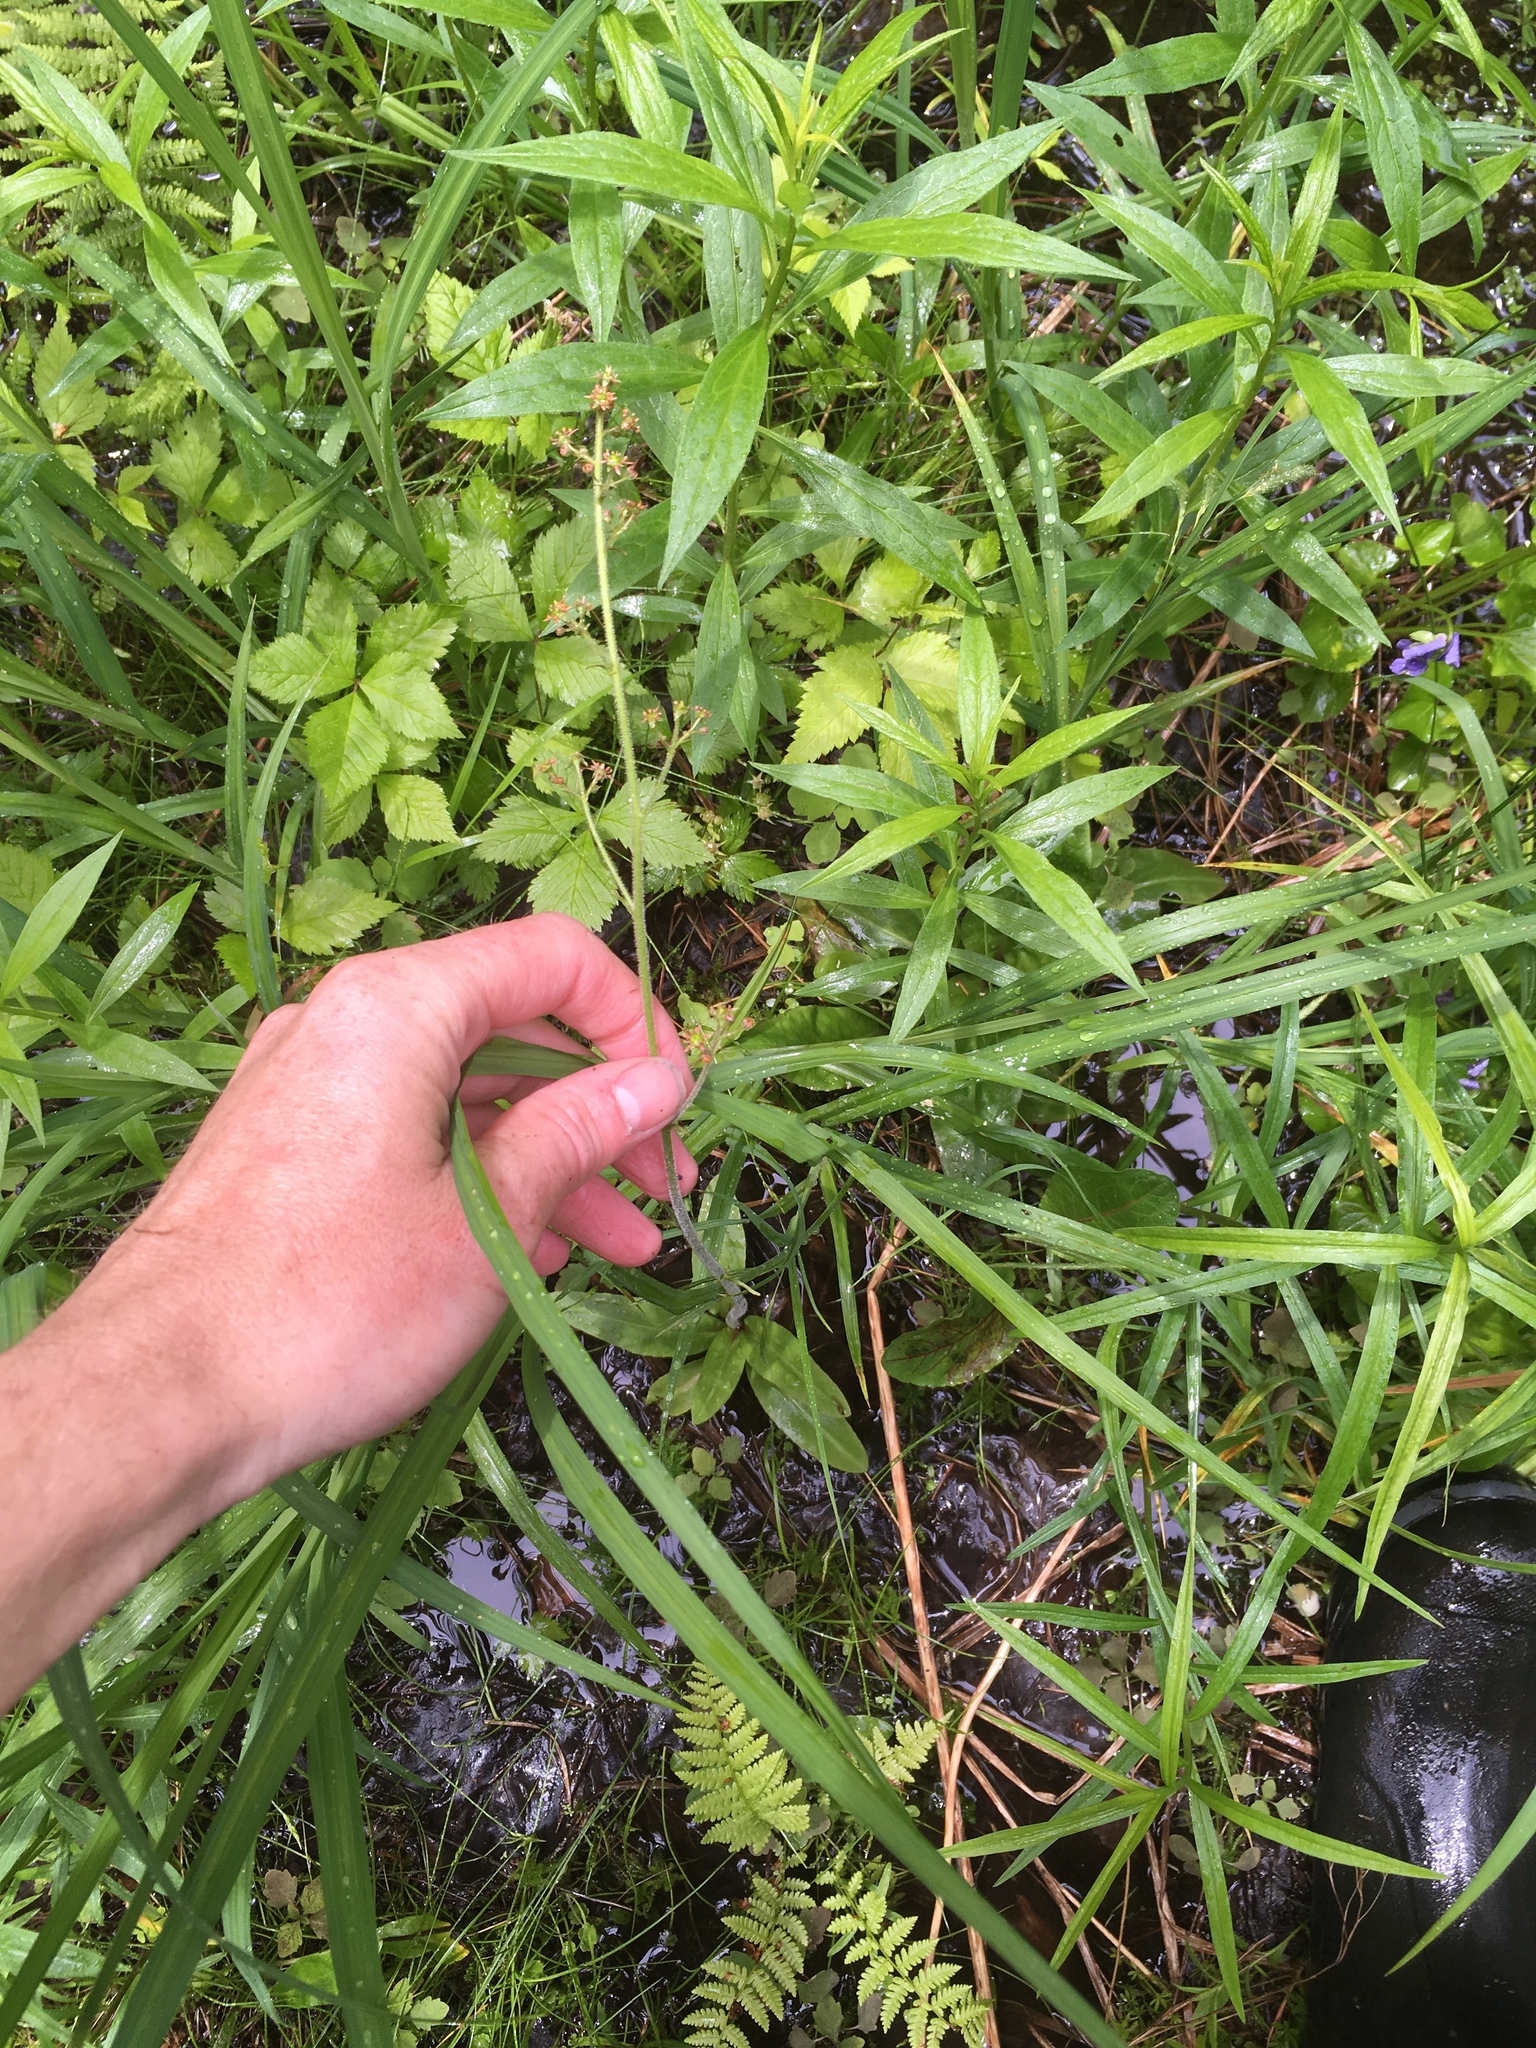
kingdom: Plantae
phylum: Tracheophyta
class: Magnoliopsida
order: Saxifragales
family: Saxifragaceae
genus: Micranthes
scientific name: Micranthes pensylvanica
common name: Marsh saxifrage
